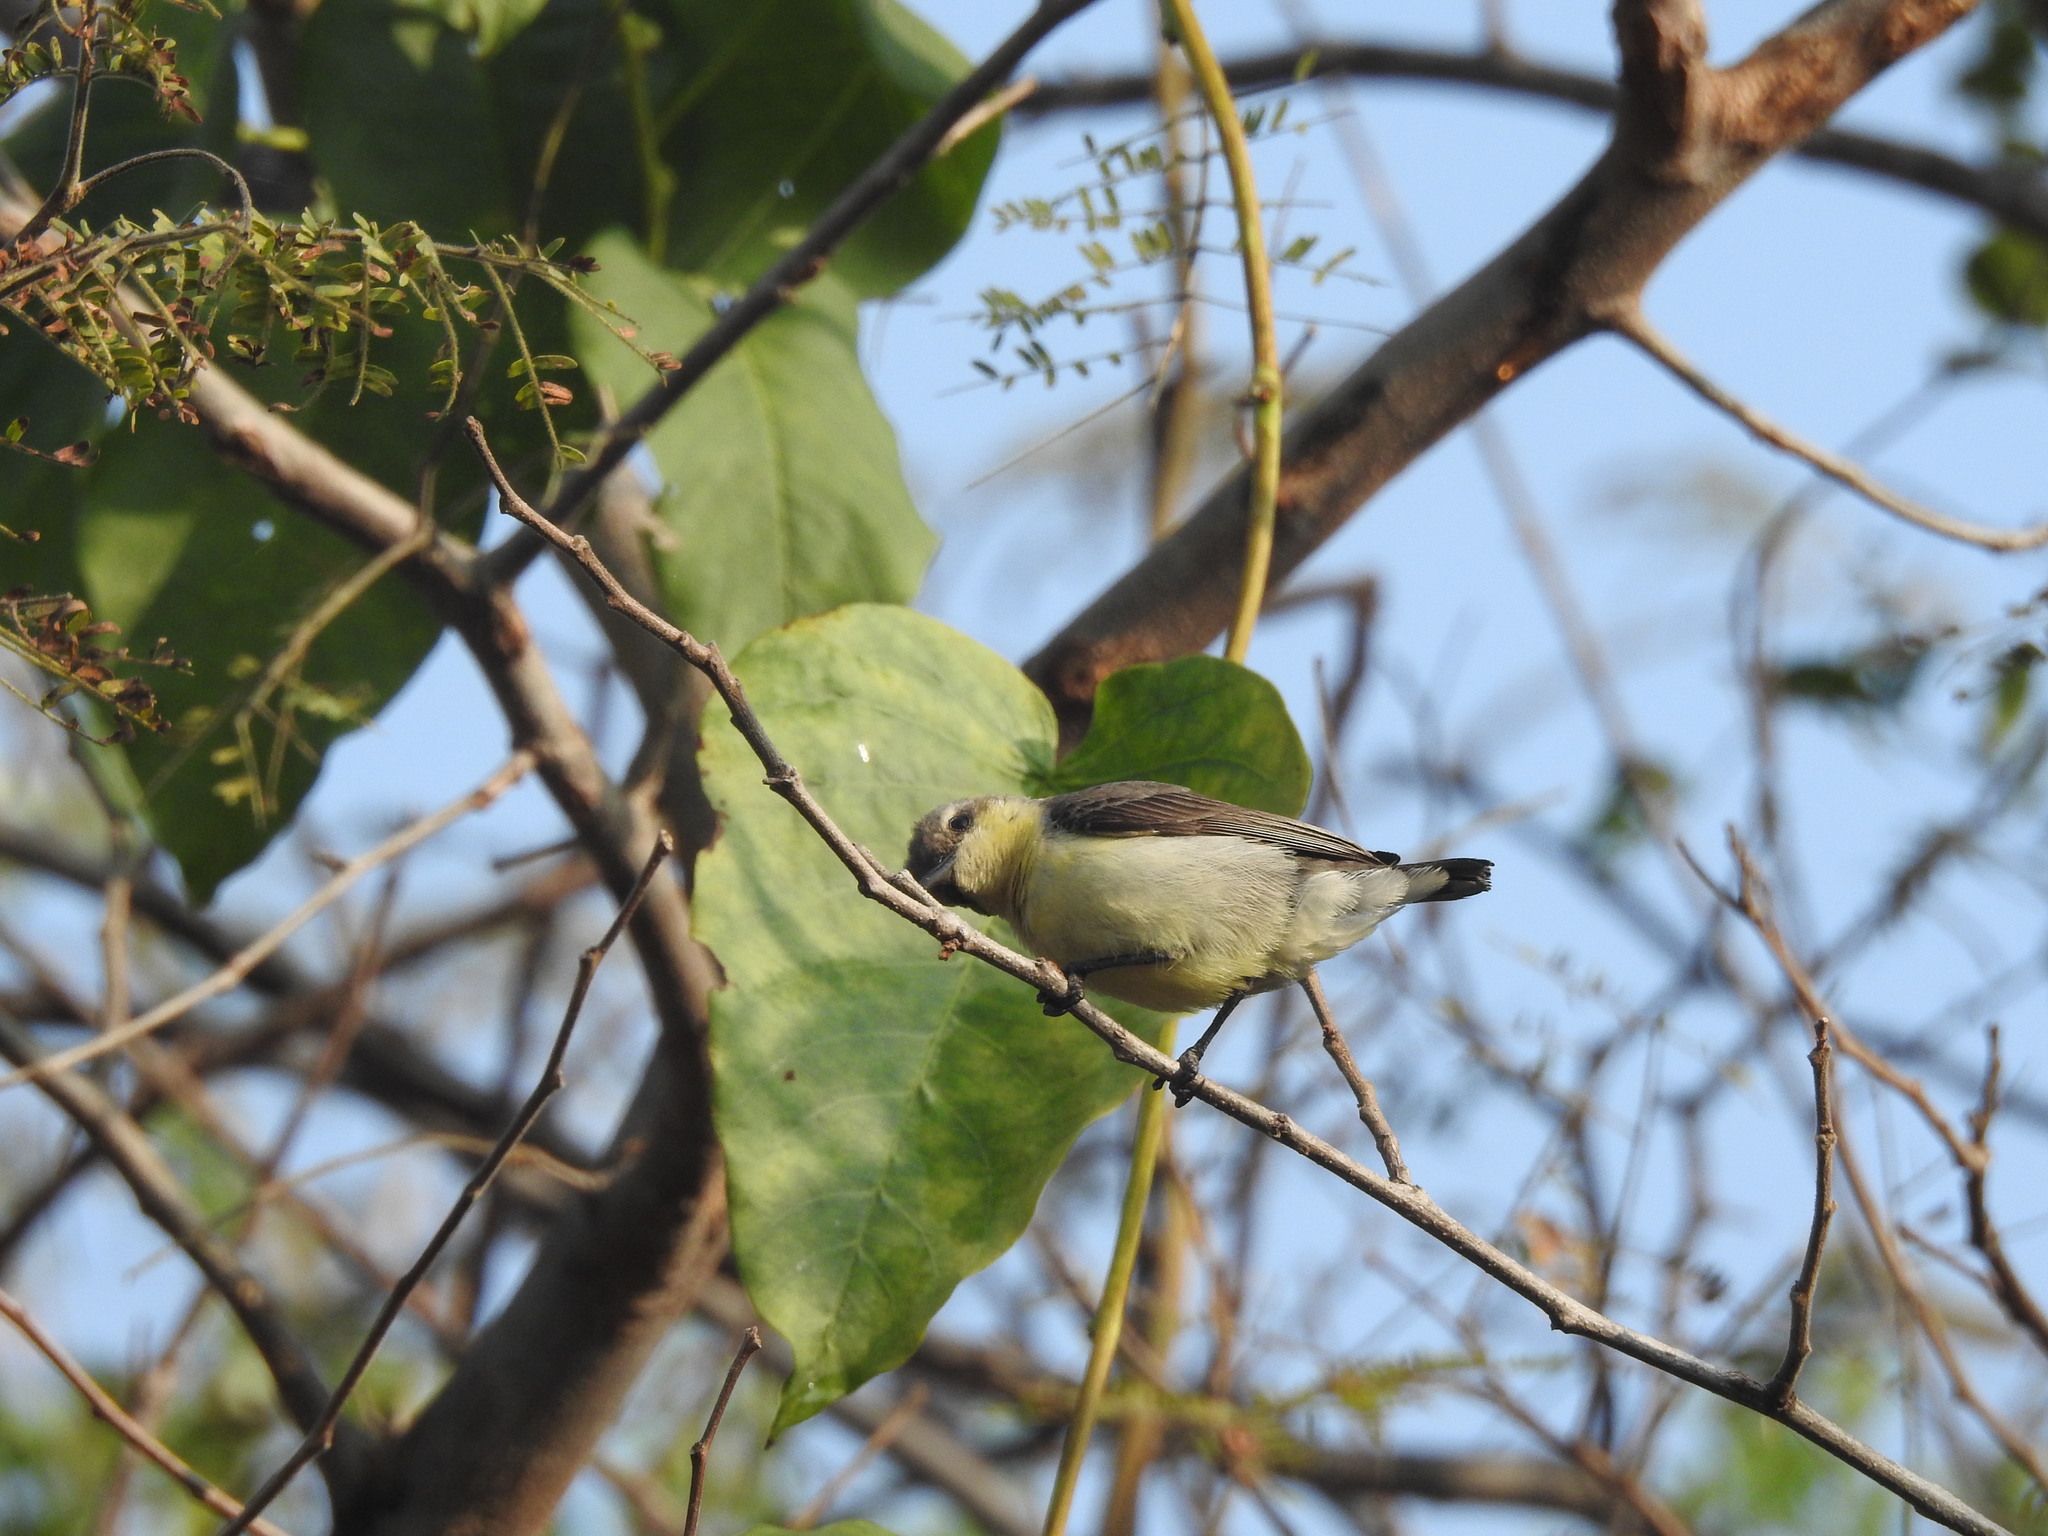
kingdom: Animalia
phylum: Chordata
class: Aves
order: Passeriformes
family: Nectariniidae
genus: Cinnyris
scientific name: Cinnyris asiaticus
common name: Purple sunbird
